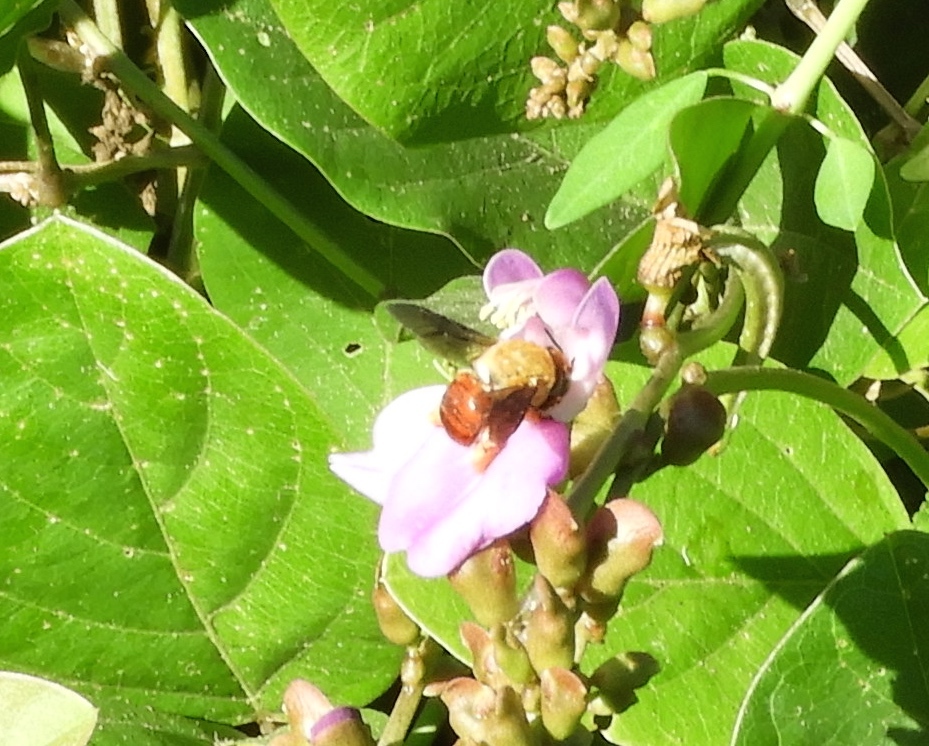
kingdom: Animalia
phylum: Arthropoda
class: Insecta
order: Hymenoptera
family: Apidae
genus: Centris
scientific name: Centris
